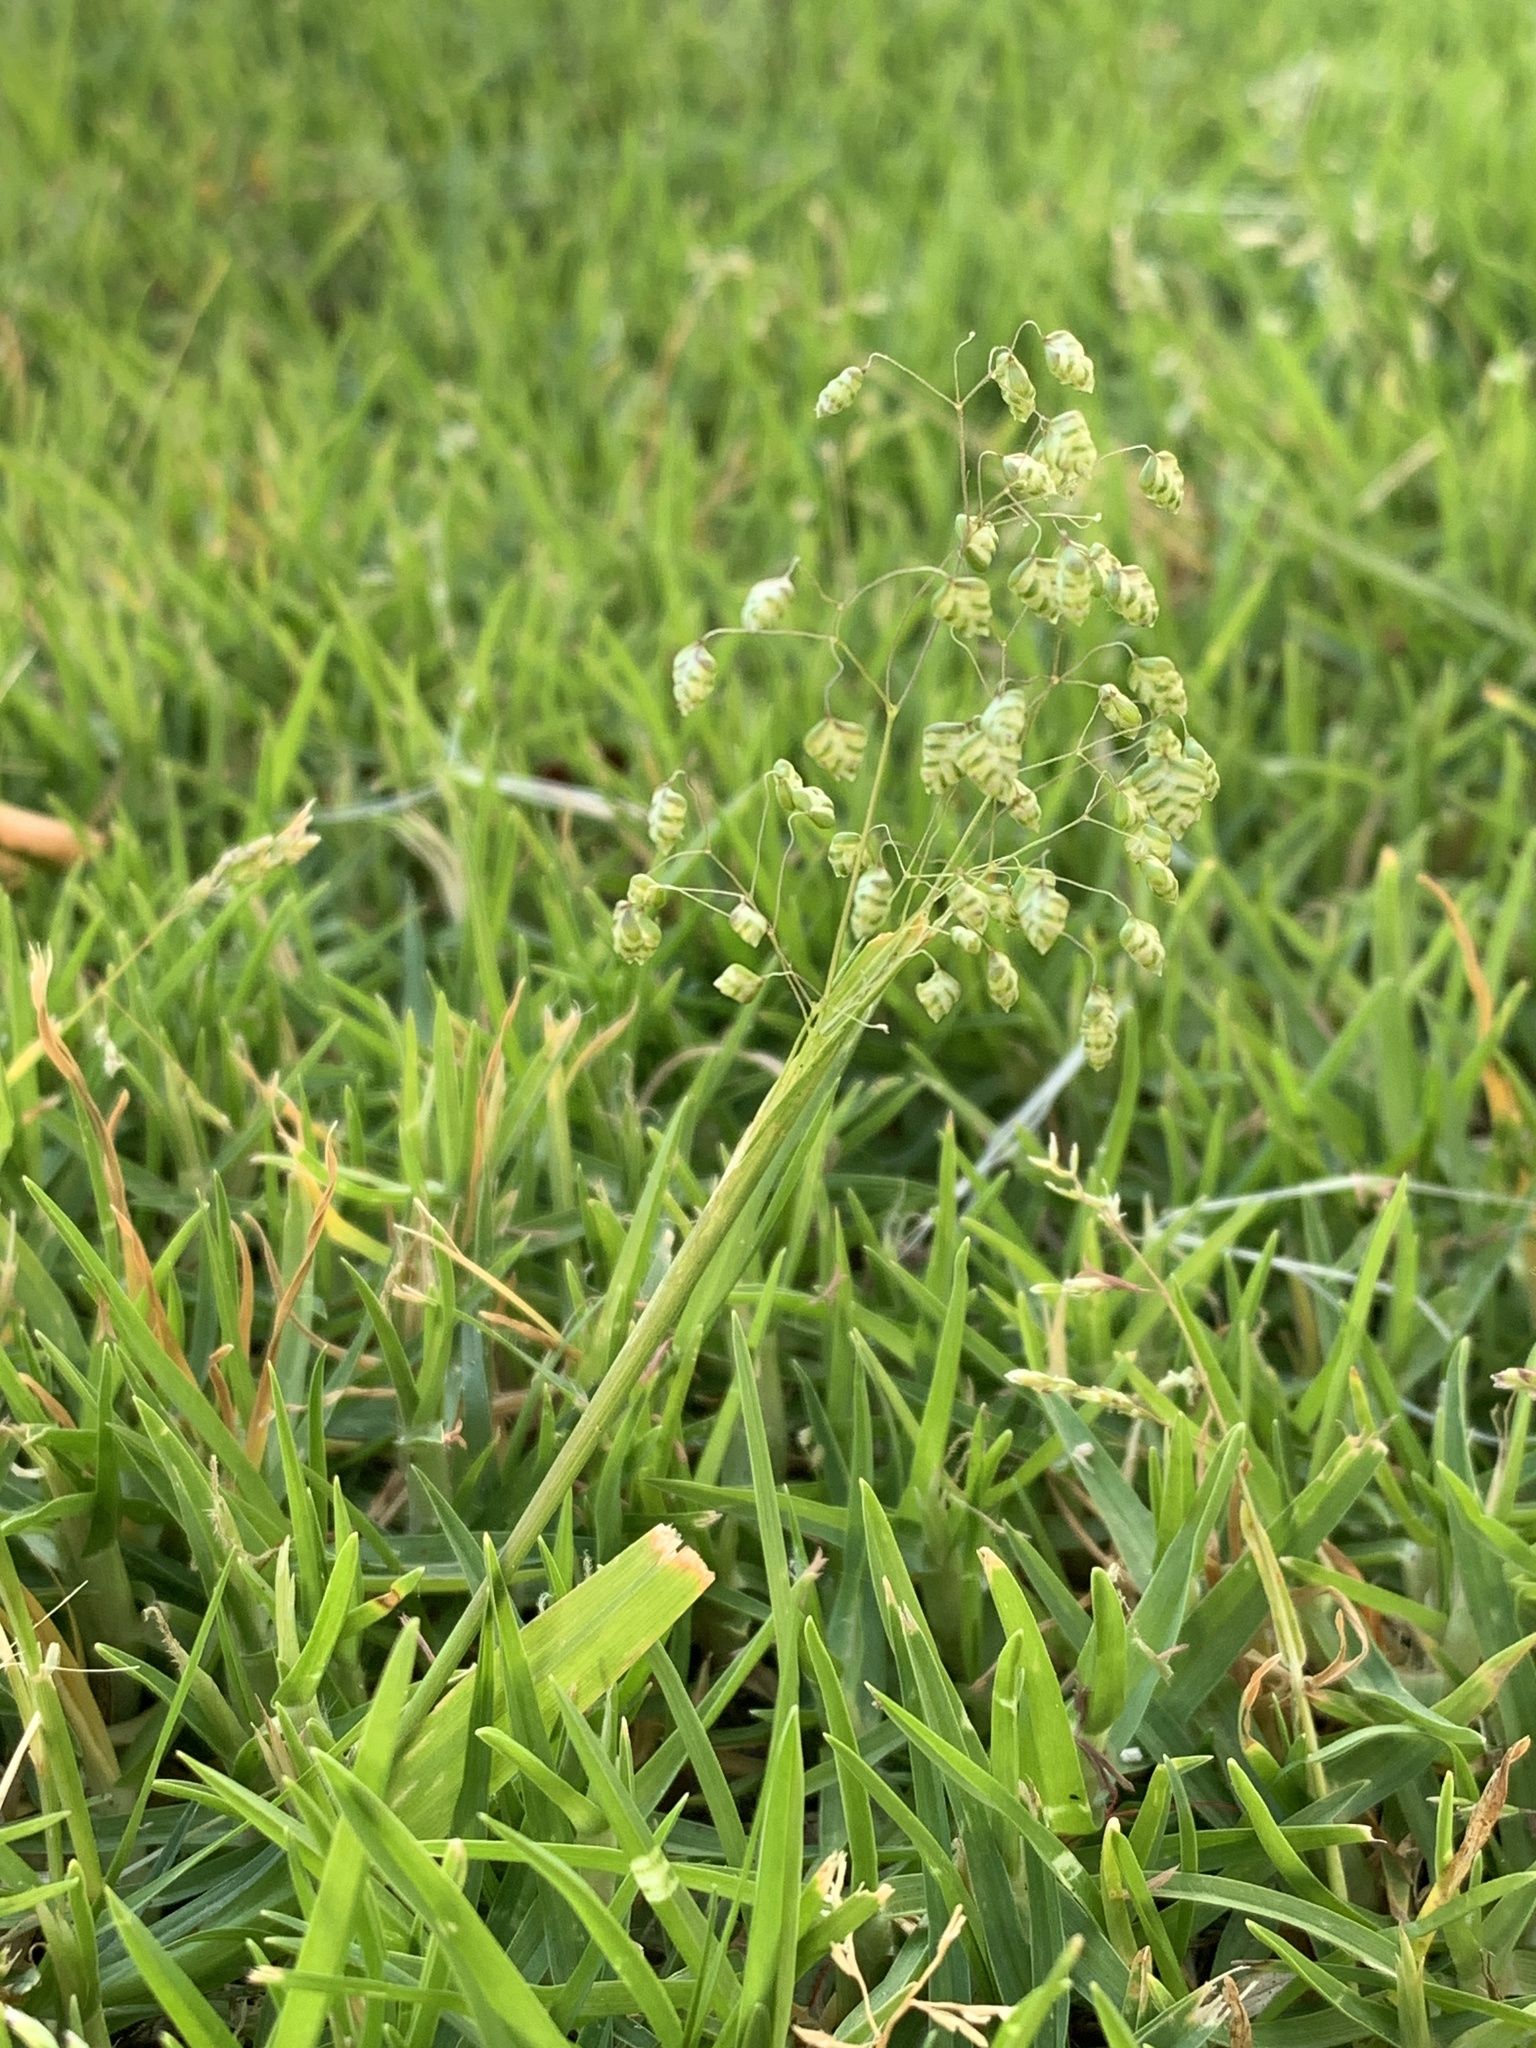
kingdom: Plantae
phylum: Tracheophyta
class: Liliopsida
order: Poales
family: Poaceae
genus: Briza
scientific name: Briza minor
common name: Lesser quaking-grass
